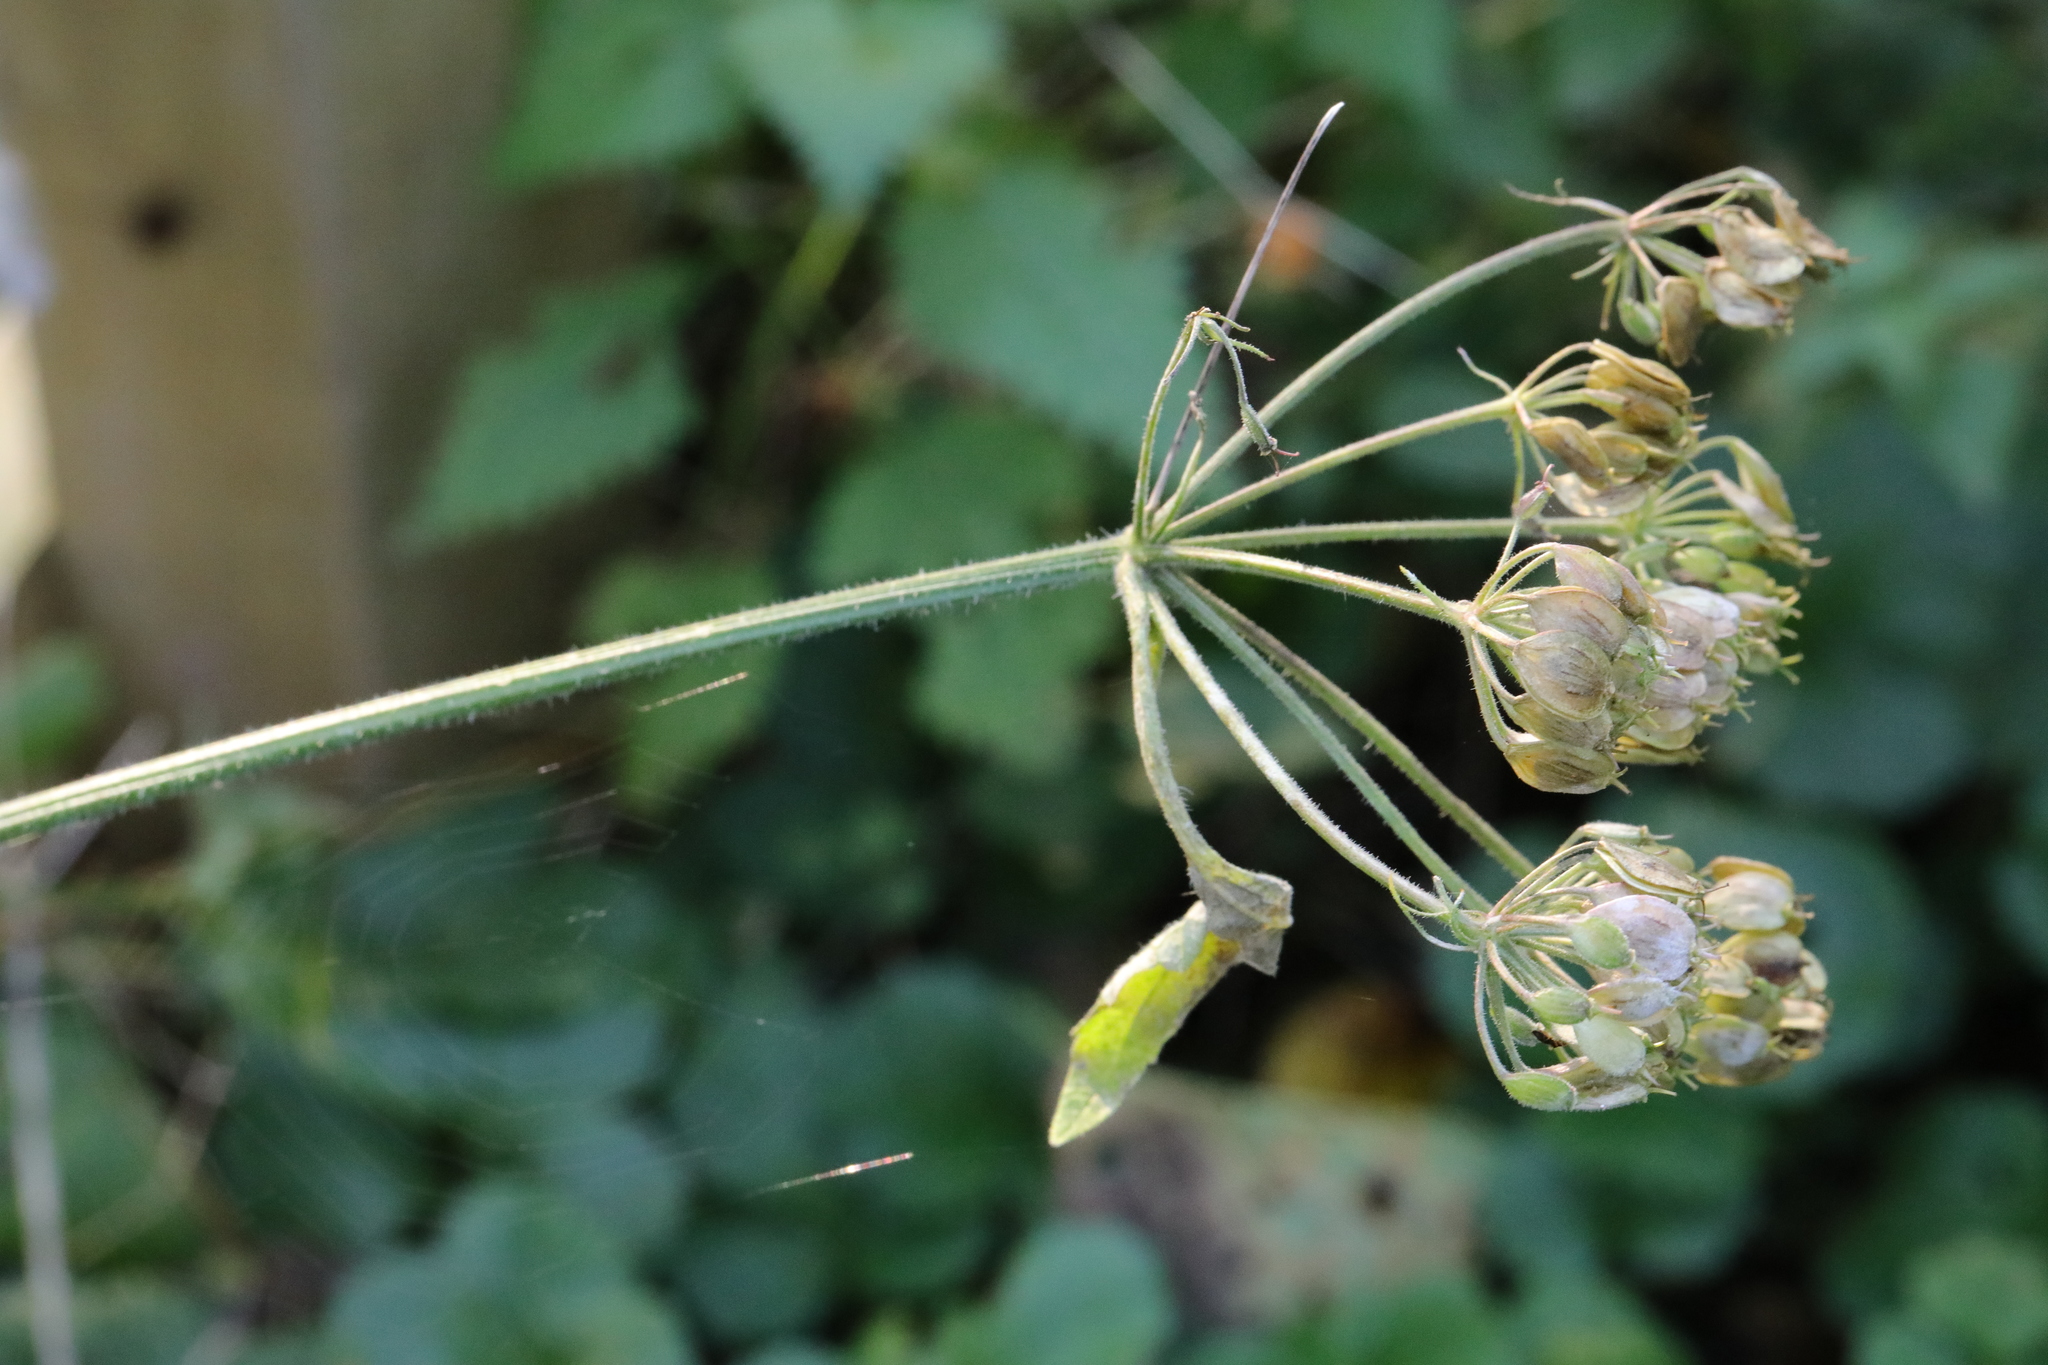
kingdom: Plantae
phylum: Tracheophyta
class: Magnoliopsida
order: Apiales
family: Apiaceae
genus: Heracleum
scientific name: Heracleum sphondylium
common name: Hogweed
